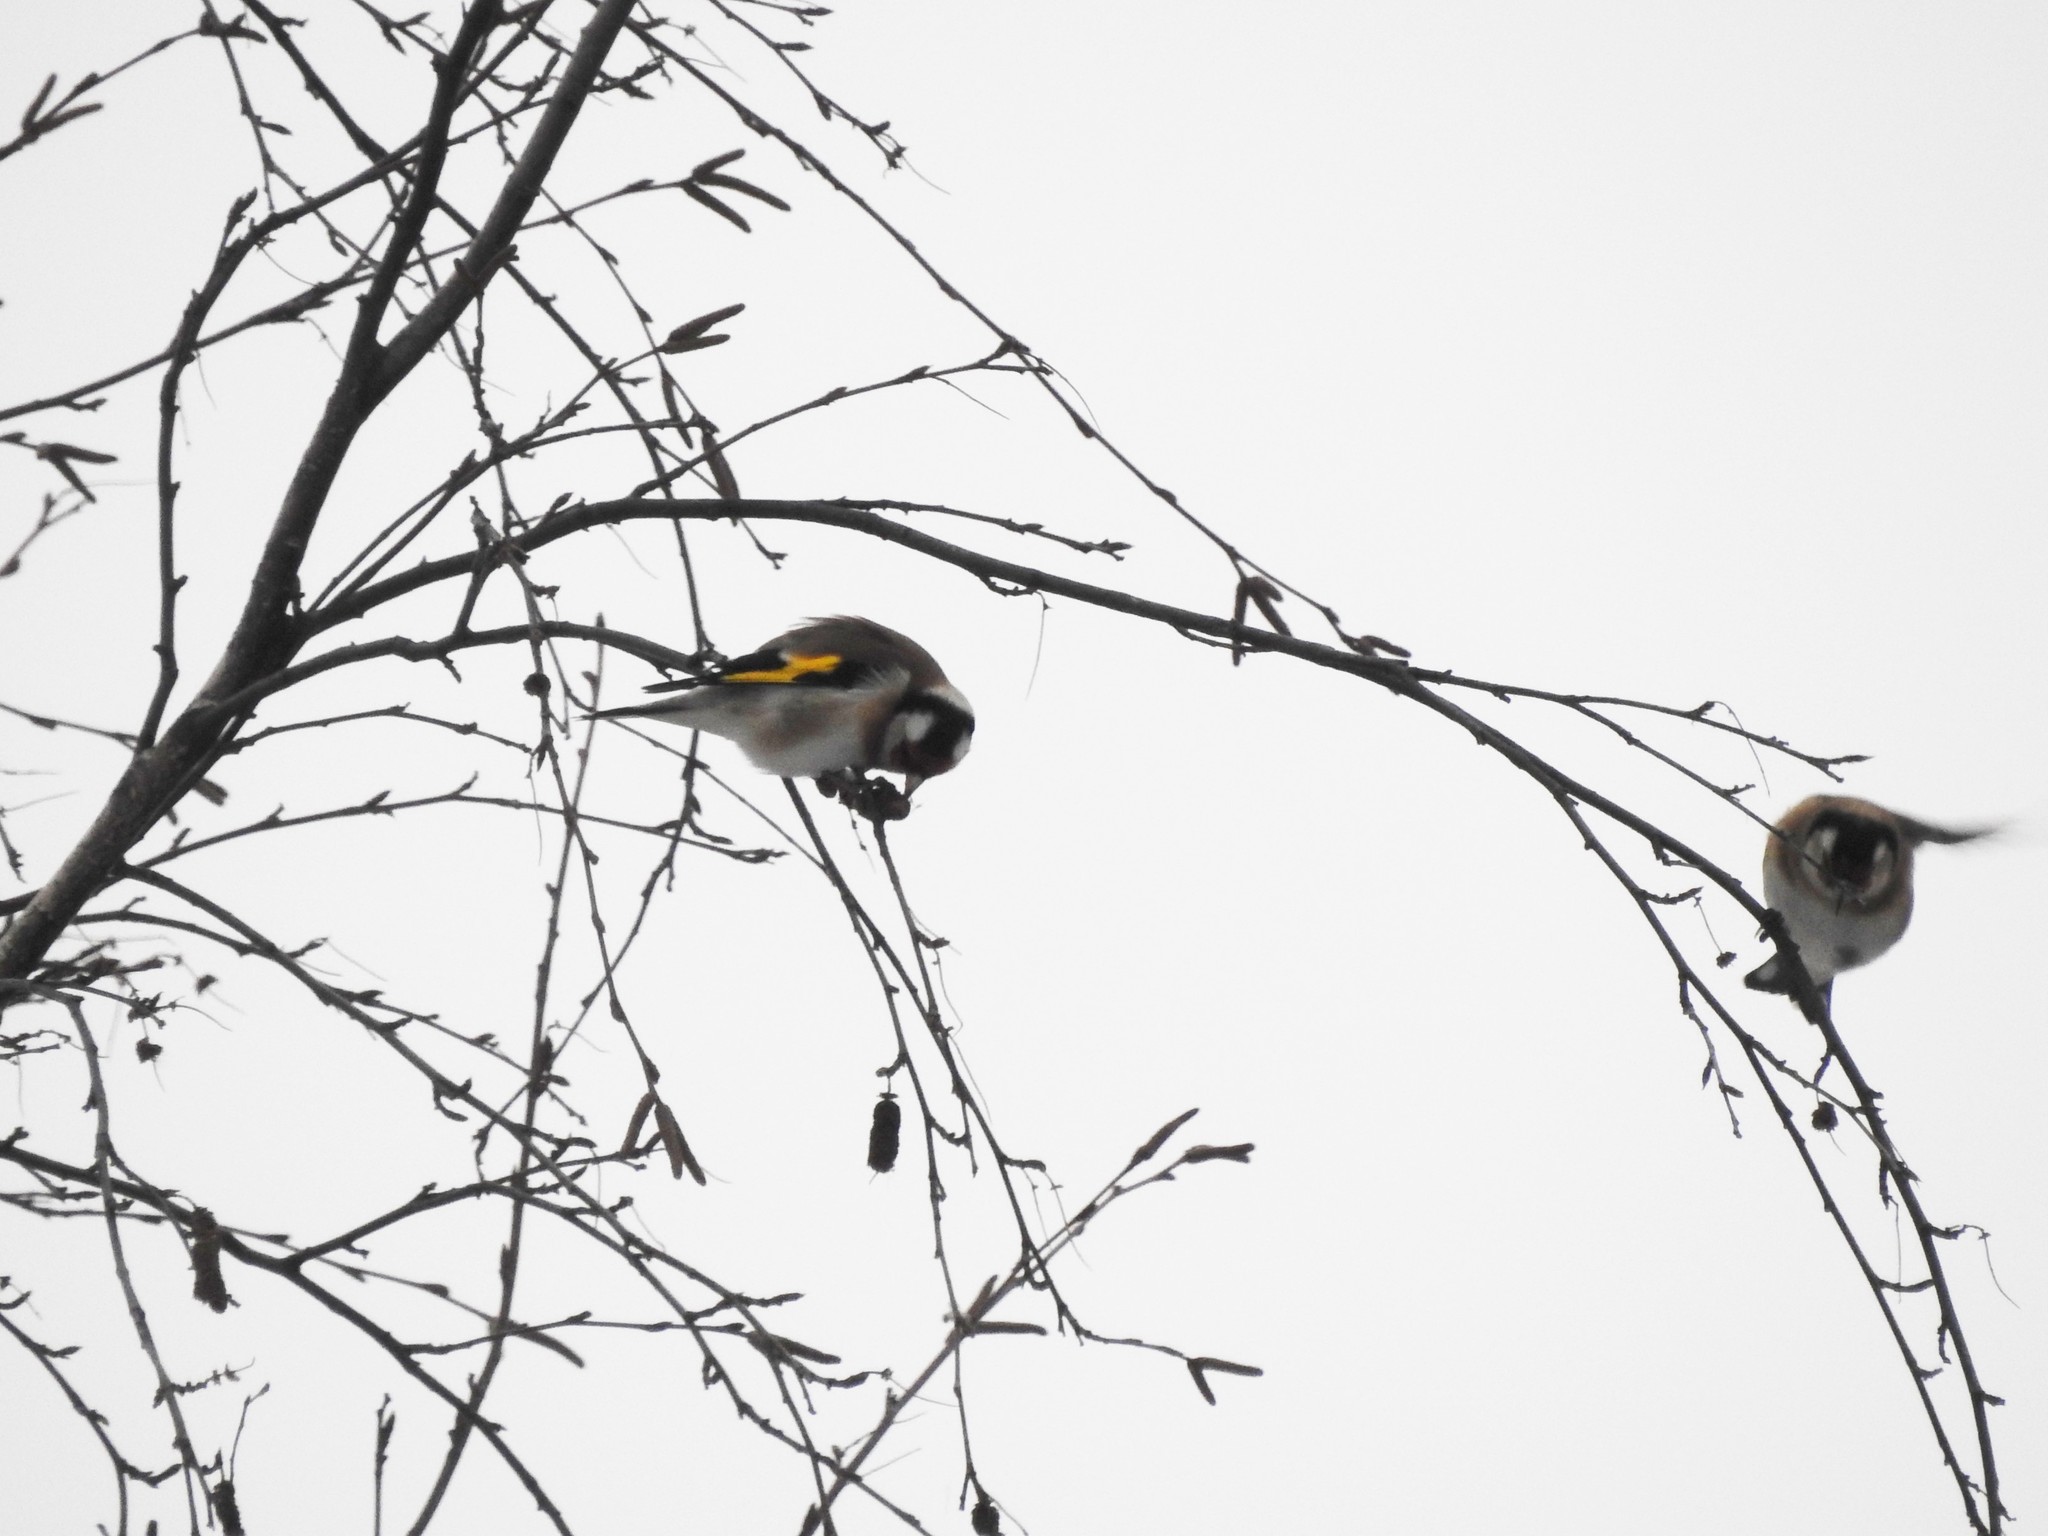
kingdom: Animalia
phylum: Chordata
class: Aves
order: Passeriformes
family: Fringillidae
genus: Carduelis
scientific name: Carduelis carduelis
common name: European goldfinch
